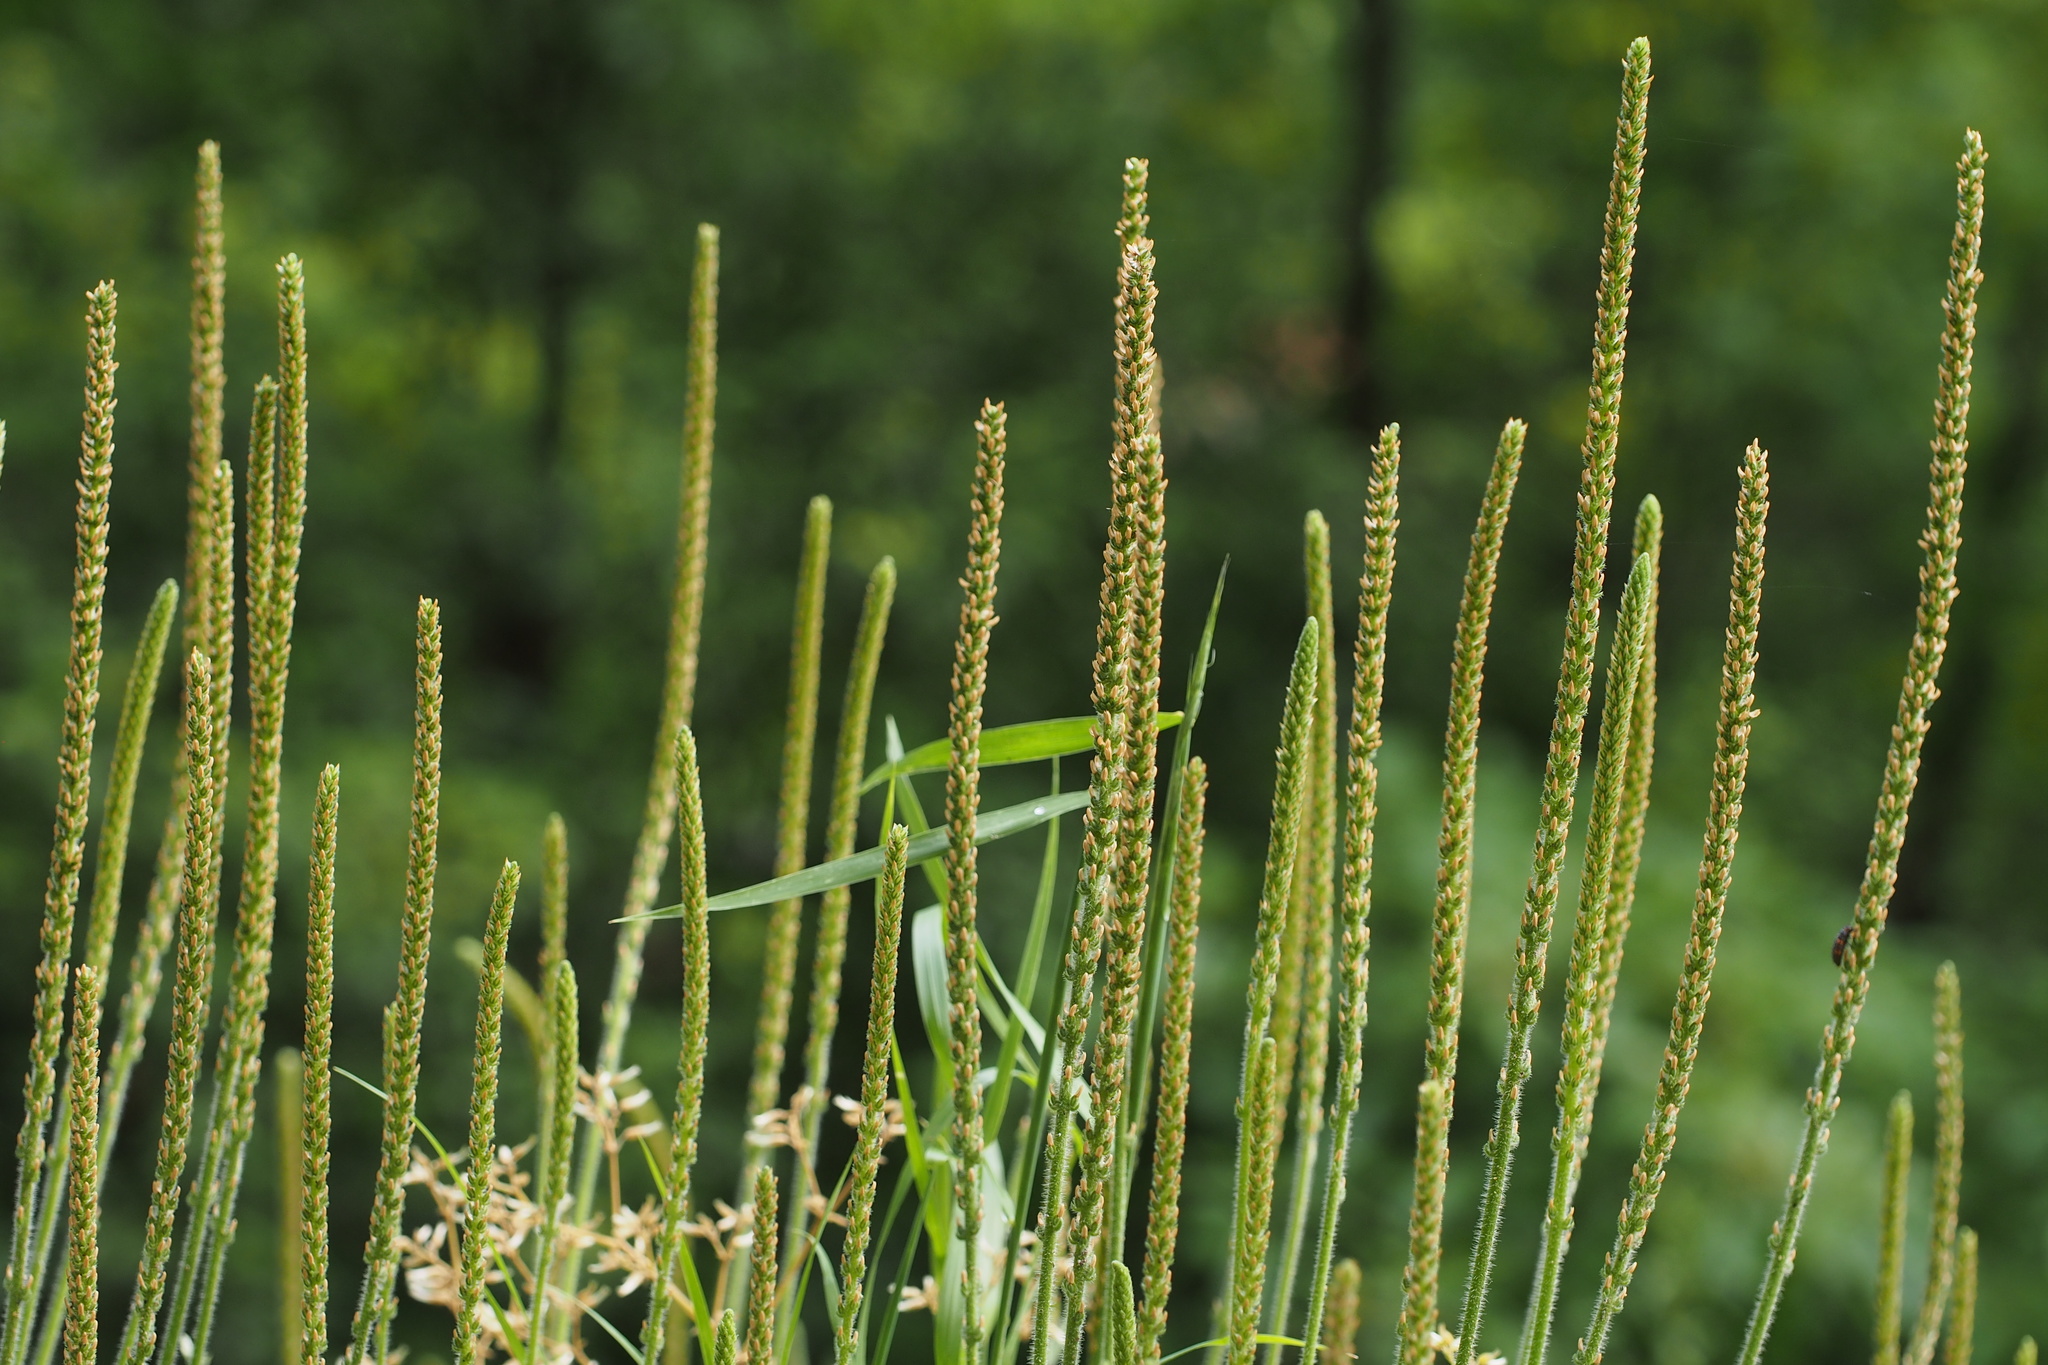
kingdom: Plantae
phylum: Tracheophyta
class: Magnoliopsida
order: Lamiales
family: Plantaginaceae
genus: Plantago
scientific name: Plantago major
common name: Common plantain
